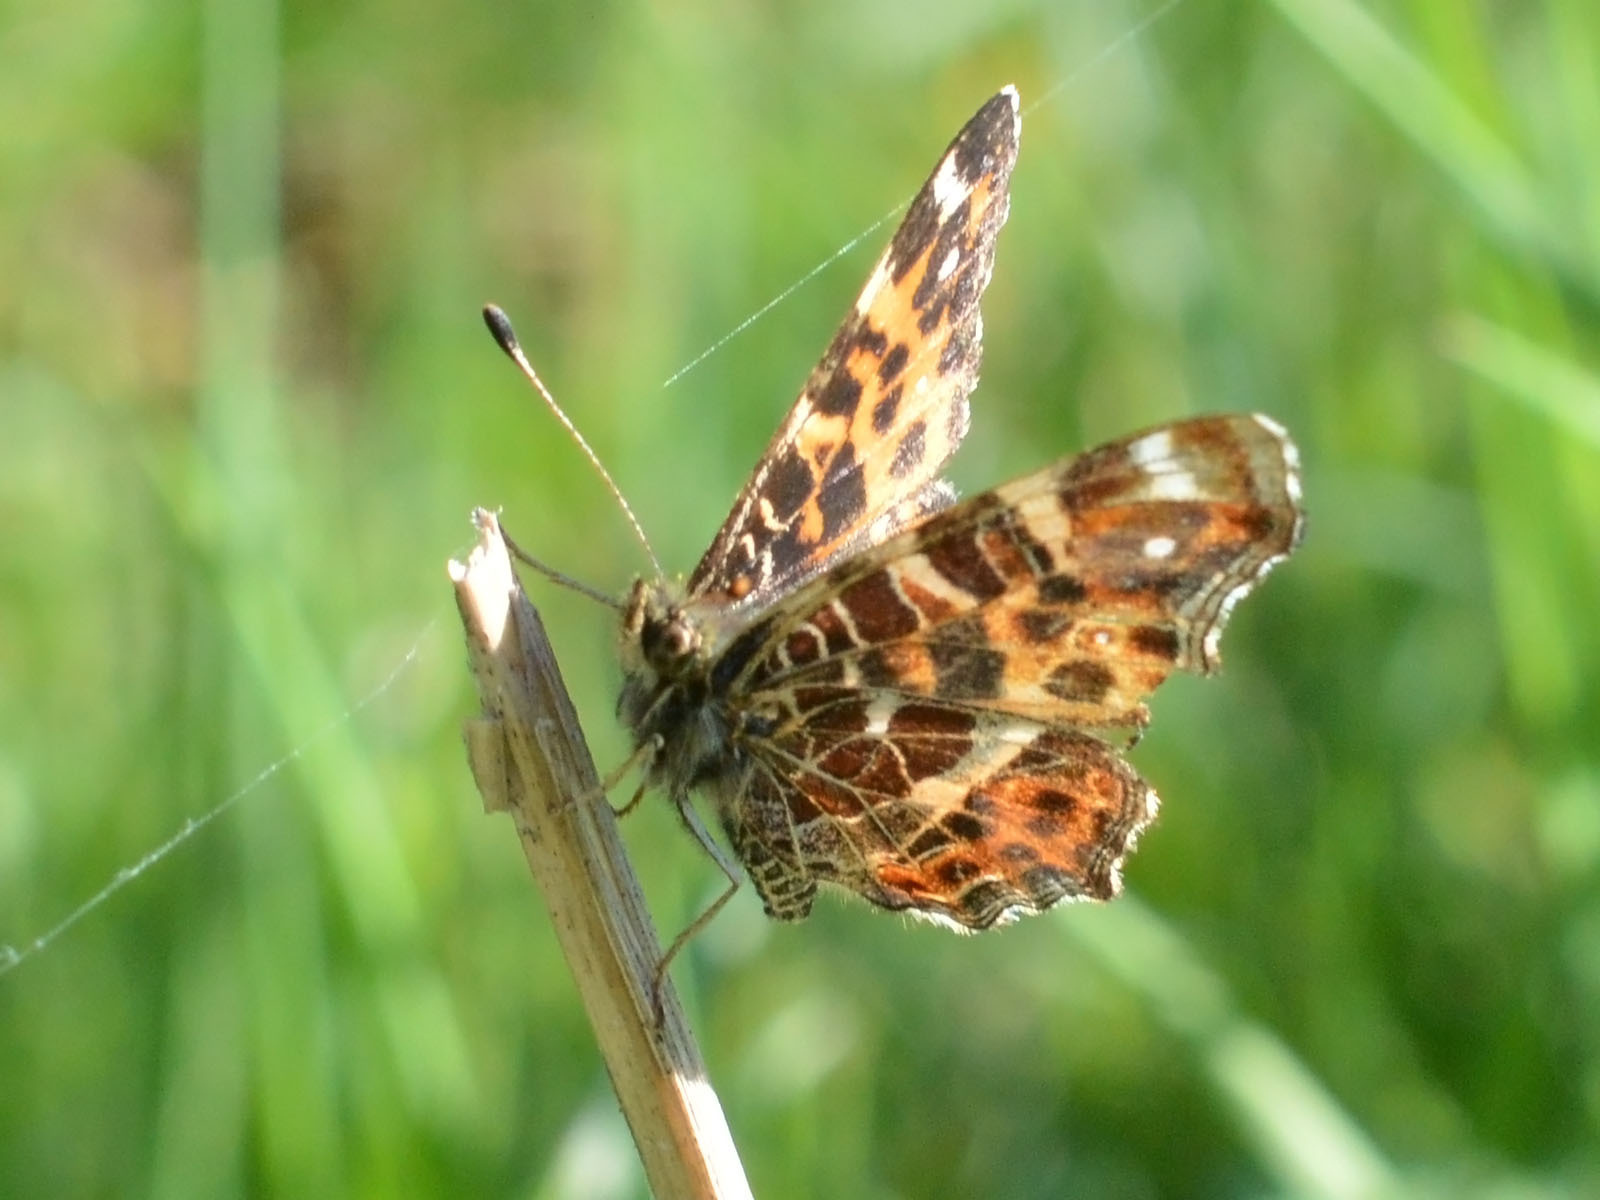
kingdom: Animalia
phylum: Arthropoda
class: Insecta
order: Lepidoptera
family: Nymphalidae
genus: Araschnia
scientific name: Araschnia levana
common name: Map butterfly
